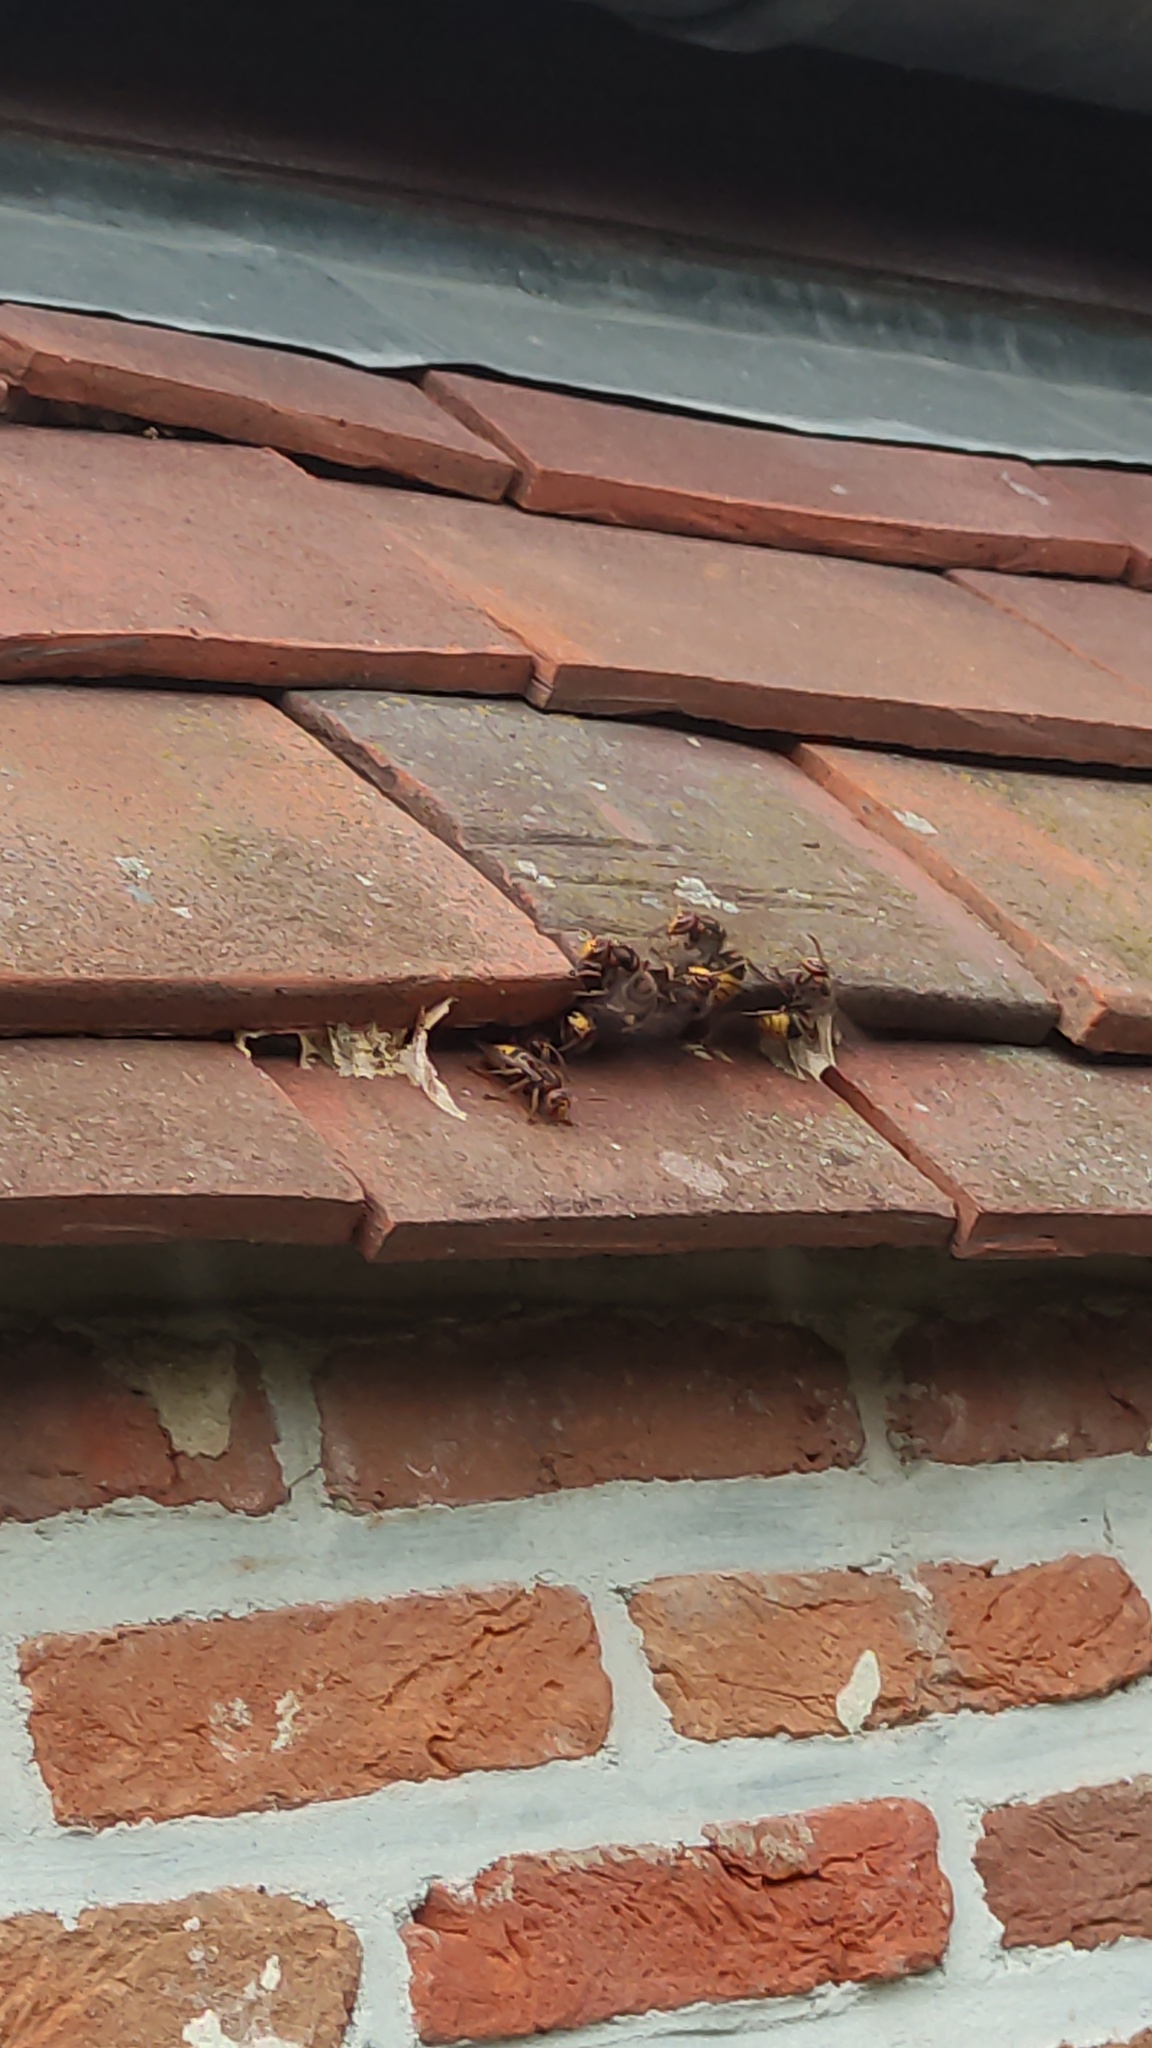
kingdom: Animalia
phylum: Arthropoda
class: Insecta
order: Hymenoptera
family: Vespidae
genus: Vespa
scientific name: Vespa crabro
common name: Hornet
